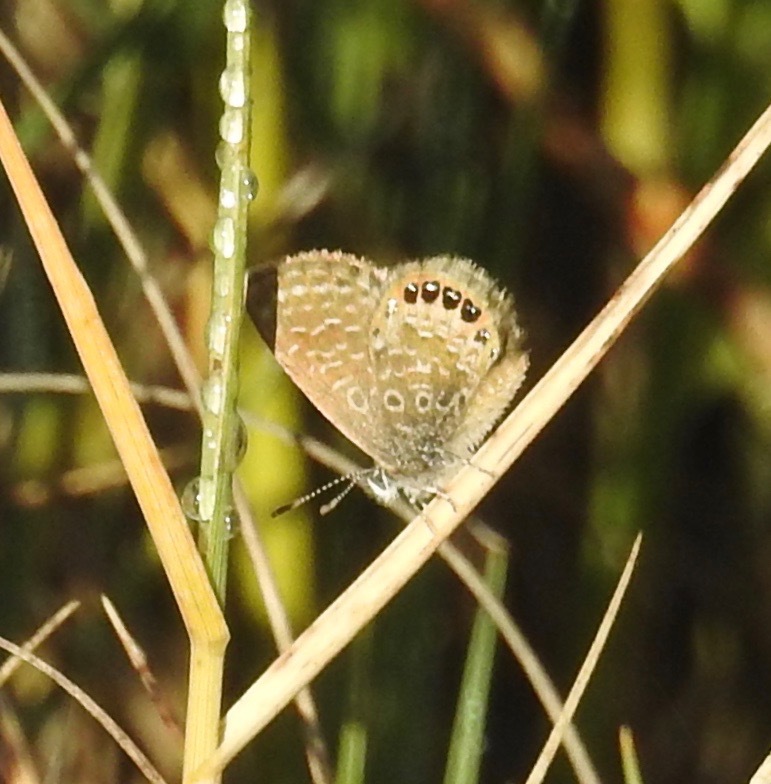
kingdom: Animalia
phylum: Arthropoda
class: Insecta
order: Lepidoptera
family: Lycaenidae
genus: Brephidium
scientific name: Brephidium isophthalma
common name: Eastern pygmy-blue
